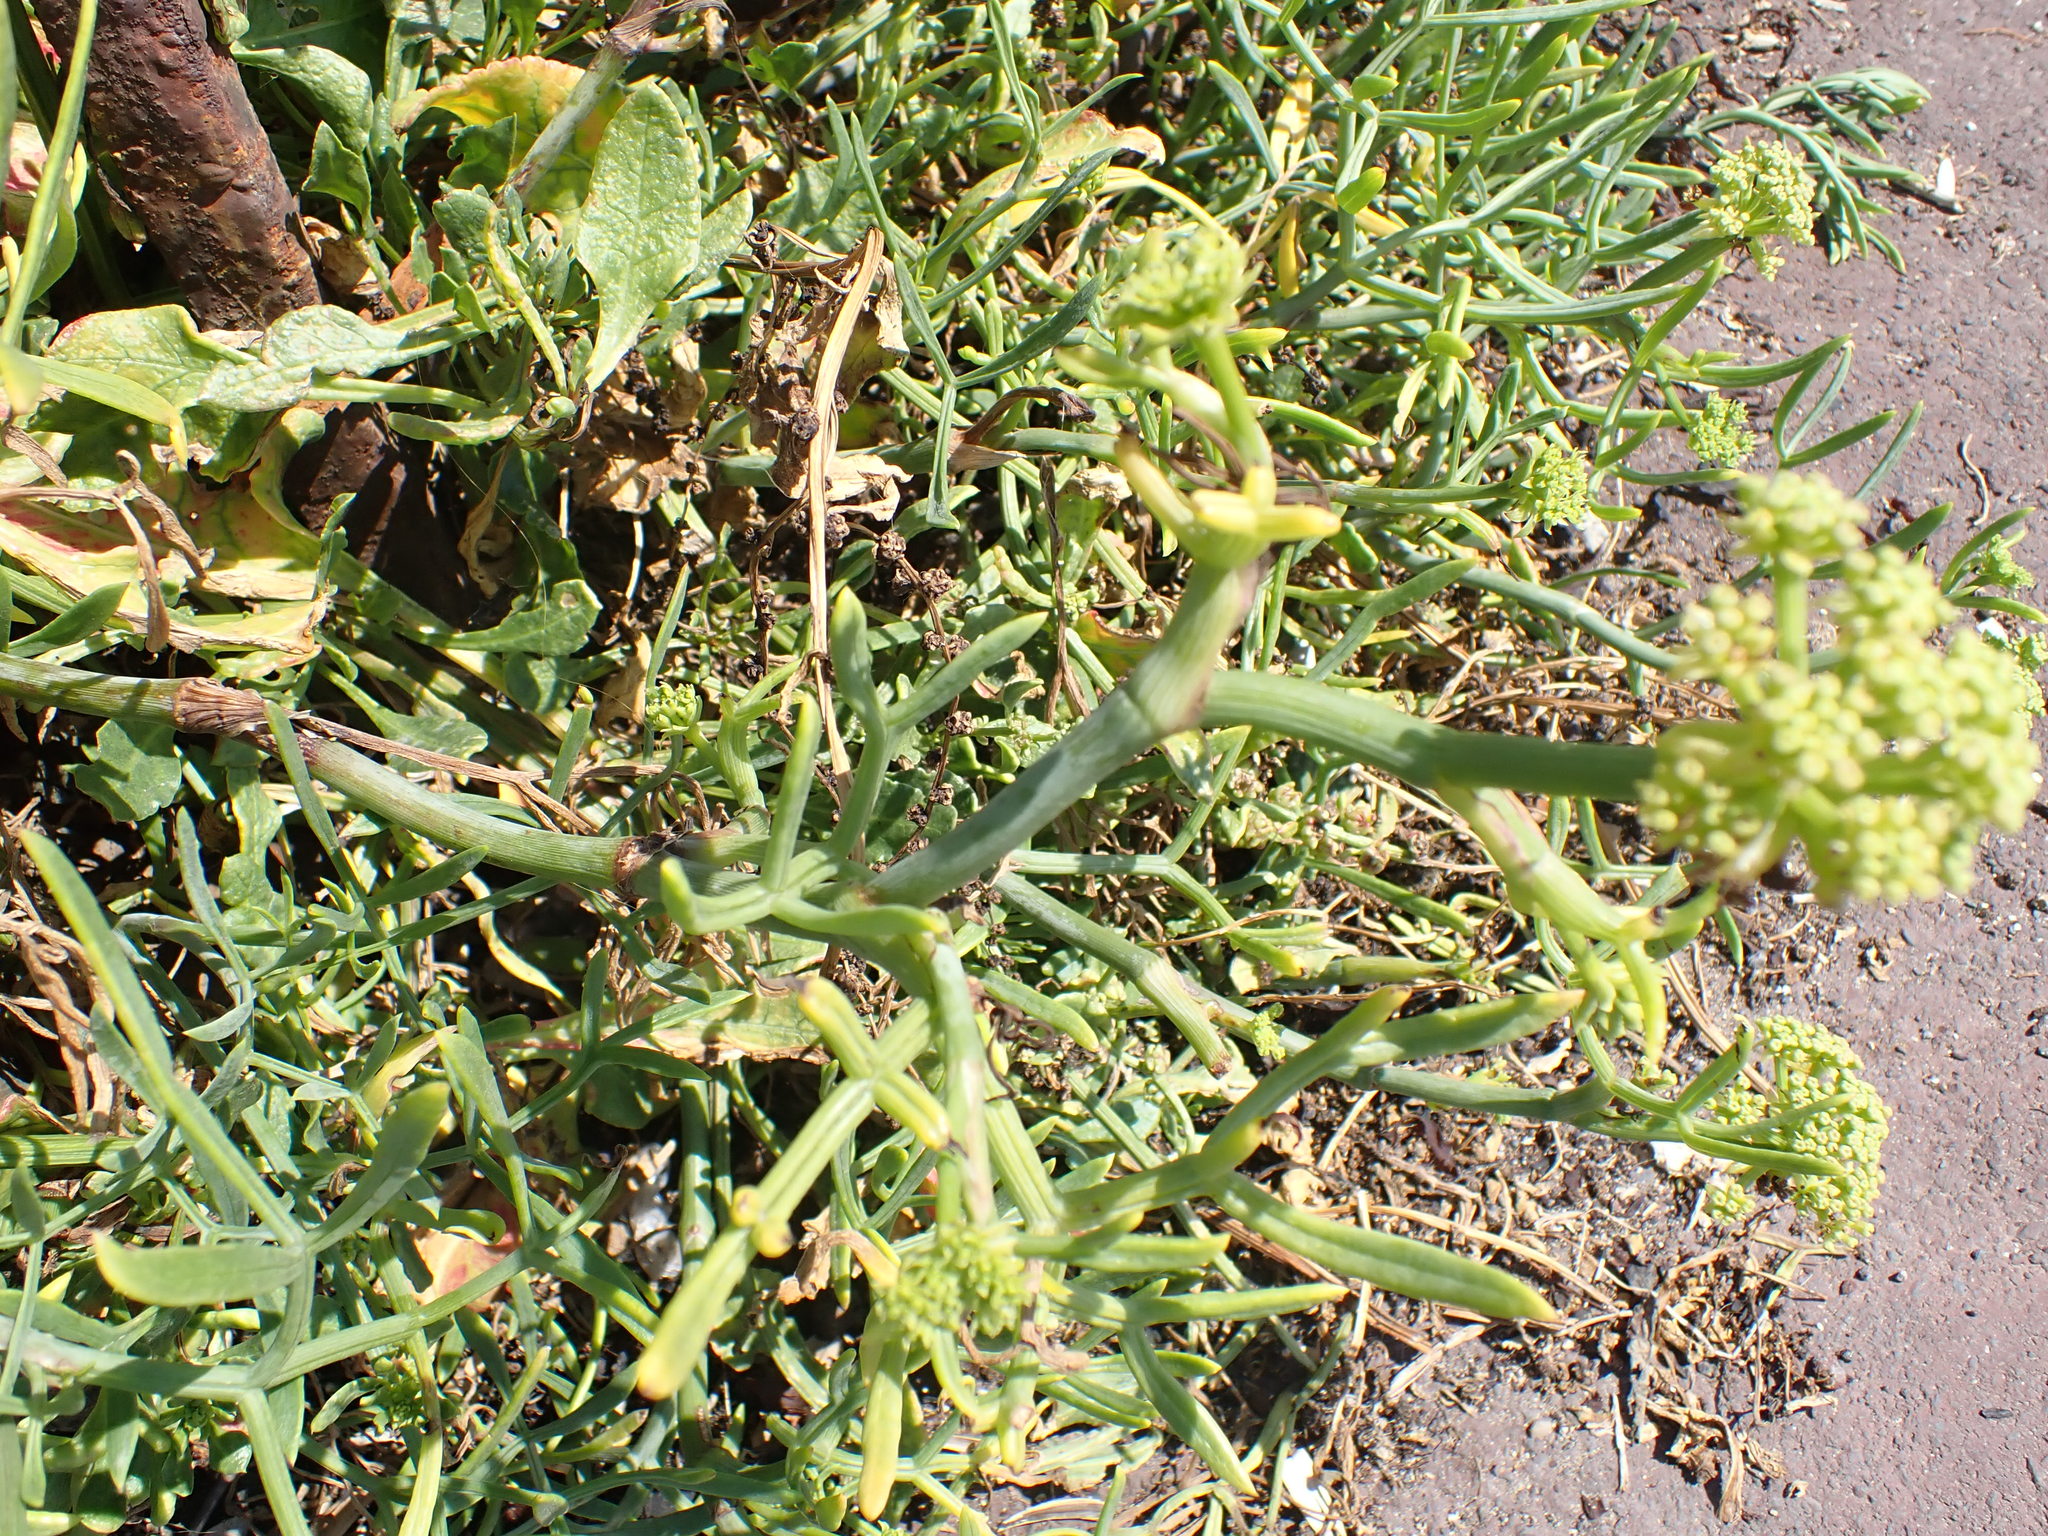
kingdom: Plantae
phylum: Tracheophyta
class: Magnoliopsida
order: Apiales
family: Apiaceae
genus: Crithmum
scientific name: Crithmum maritimum
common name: Rock samphire
